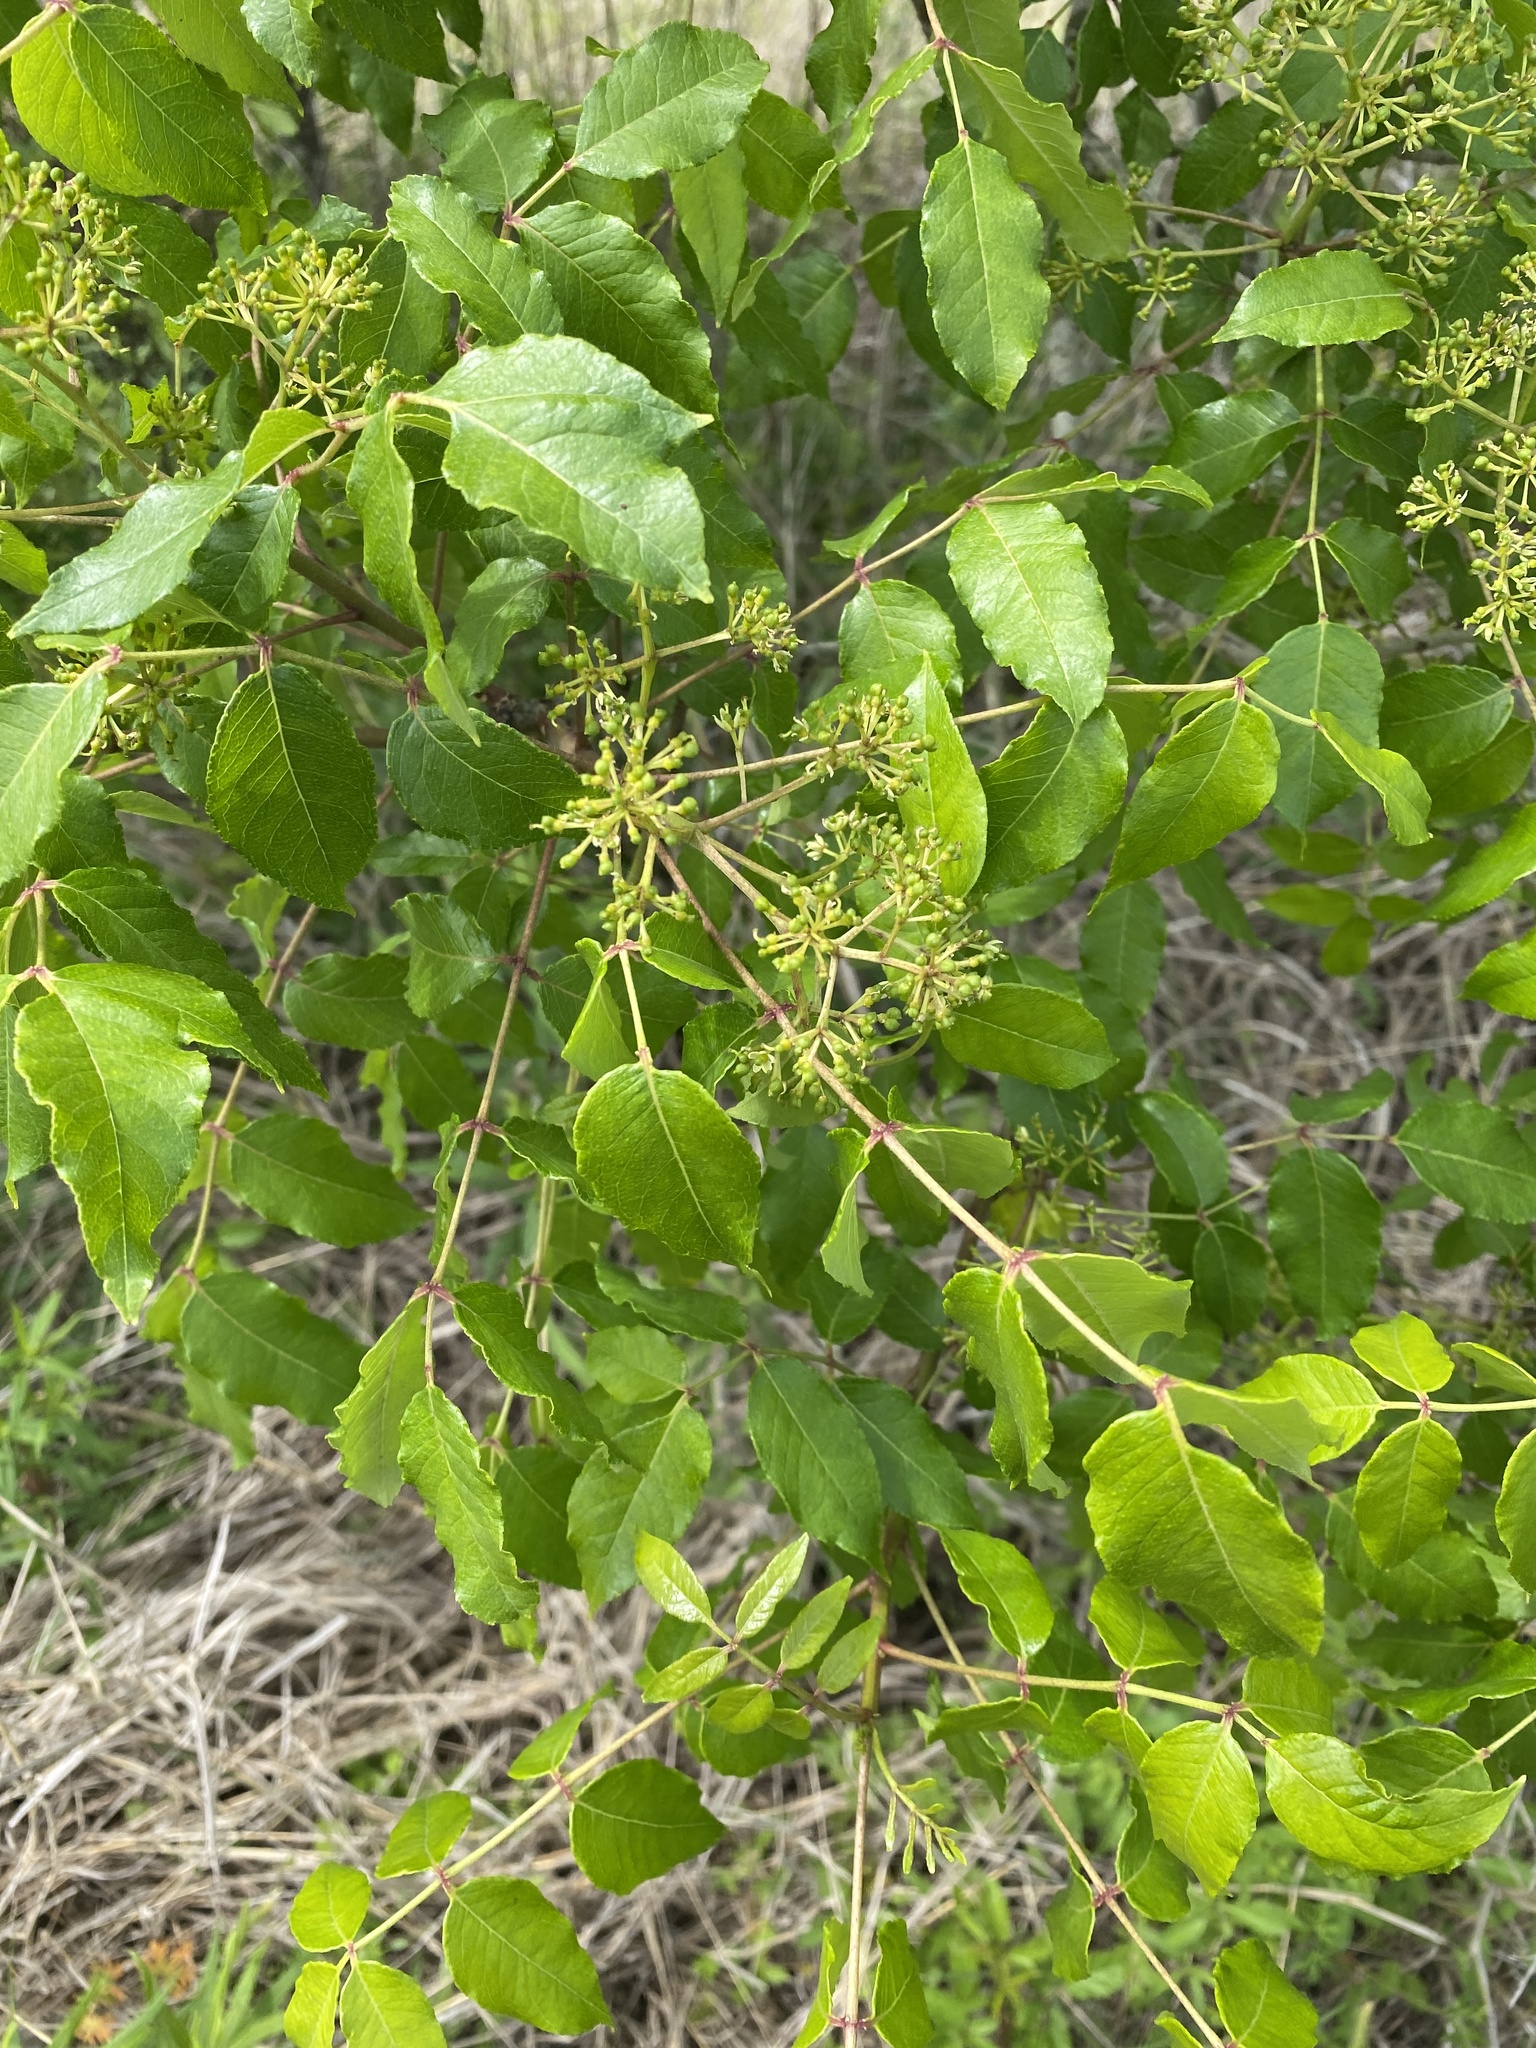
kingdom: Plantae
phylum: Tracheophyta
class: Magnoliopsida
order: Sapindales
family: Rutaceae
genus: Zanthoxylum
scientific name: Zanthoxylum clava-herculis
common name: Hercules'-club
